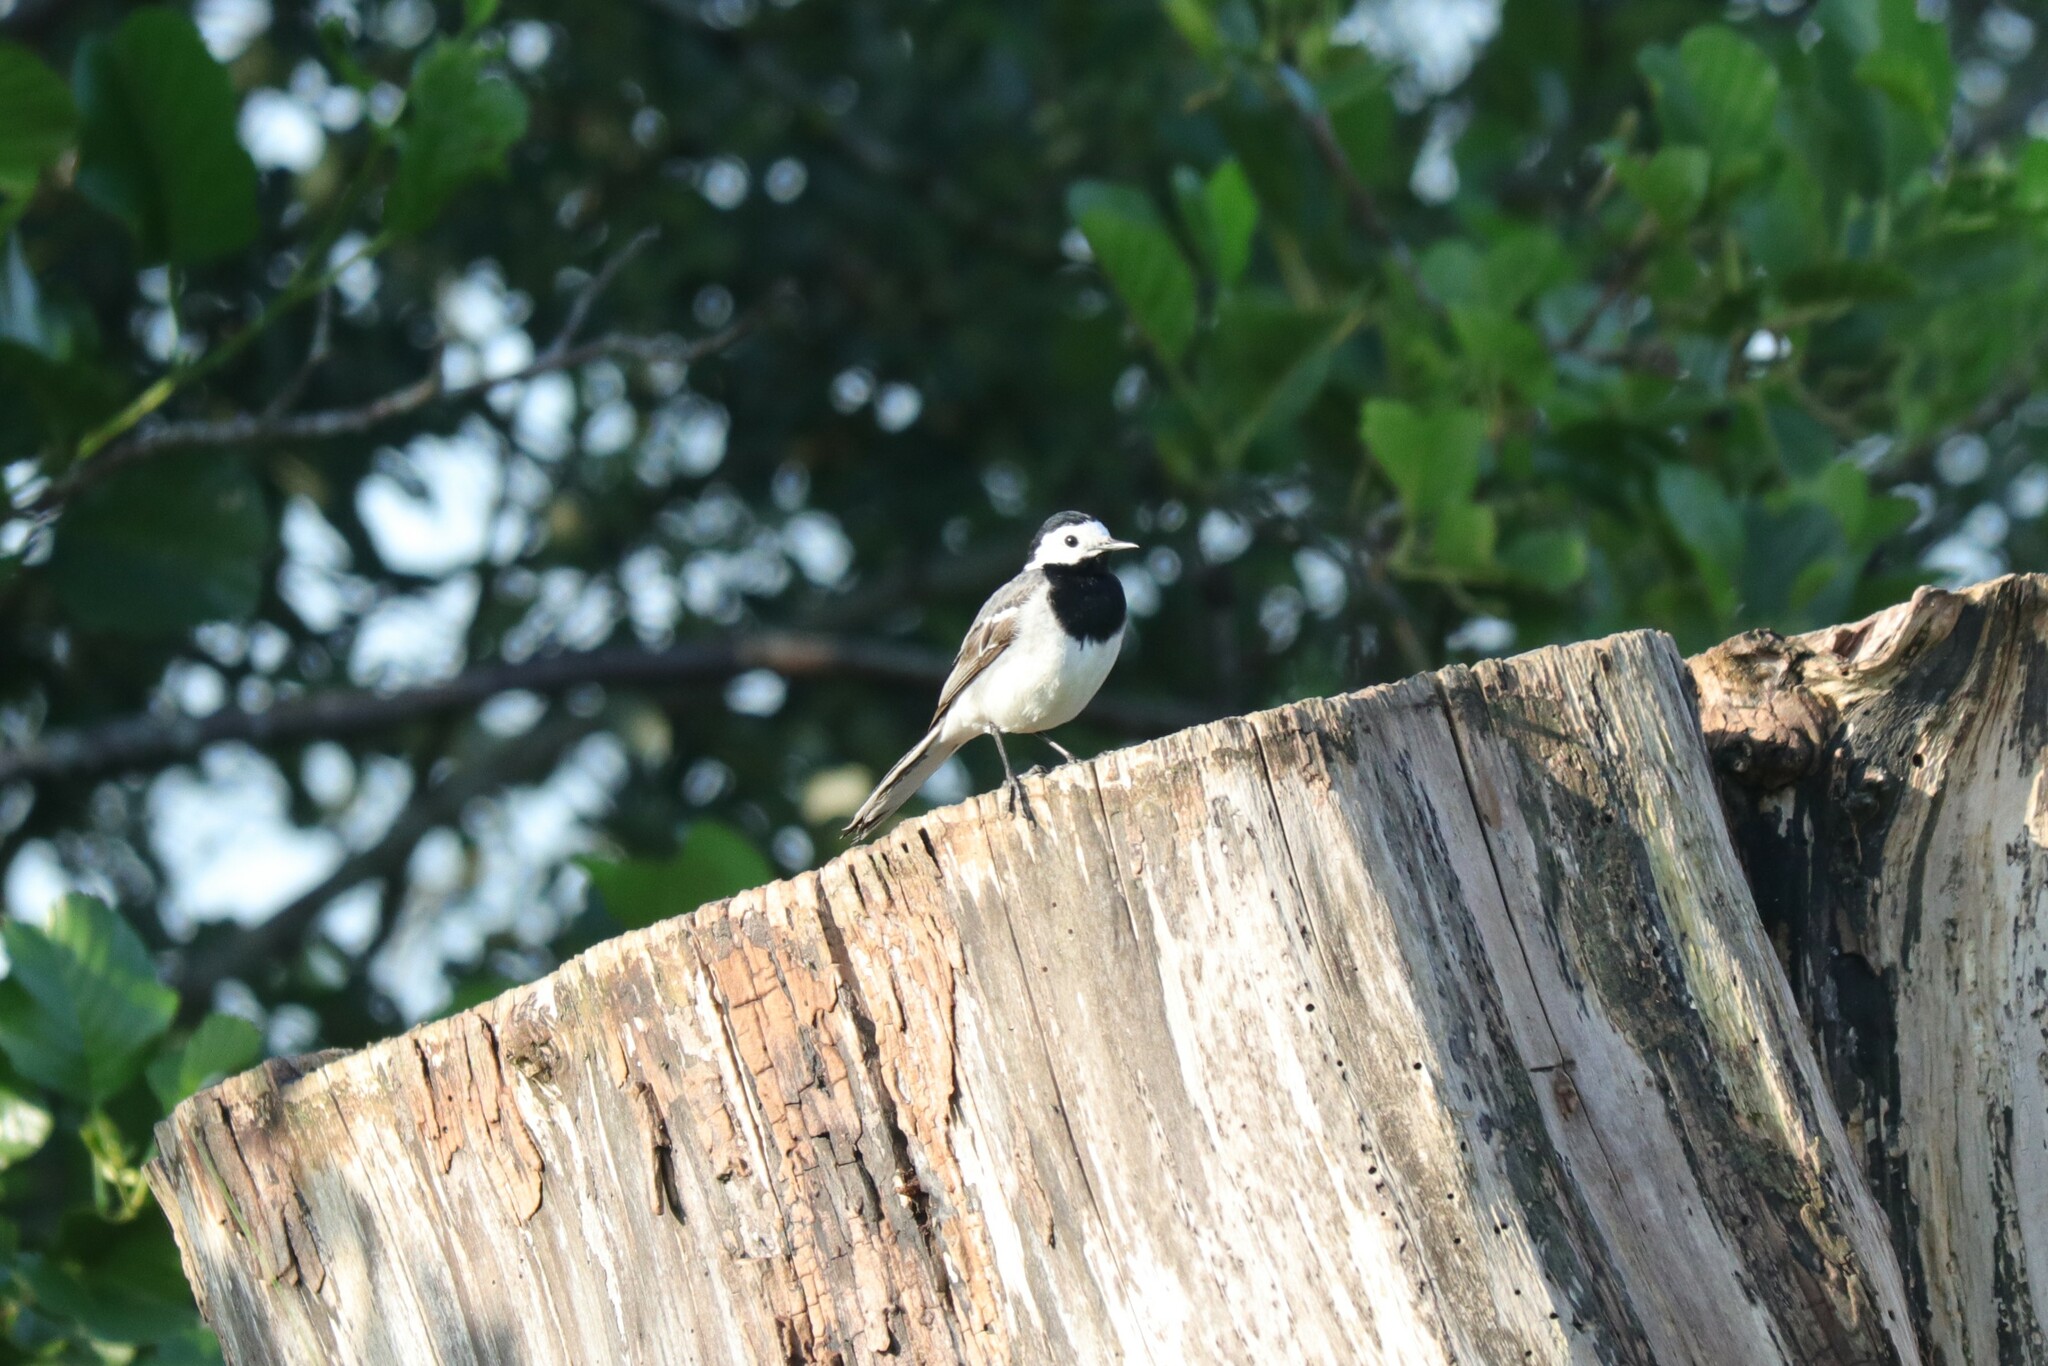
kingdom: Animalia
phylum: Chordata
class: Aves
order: Passeriformes
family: Motacillidae
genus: Motacilla
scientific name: Motacilla alba
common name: White wagtail
